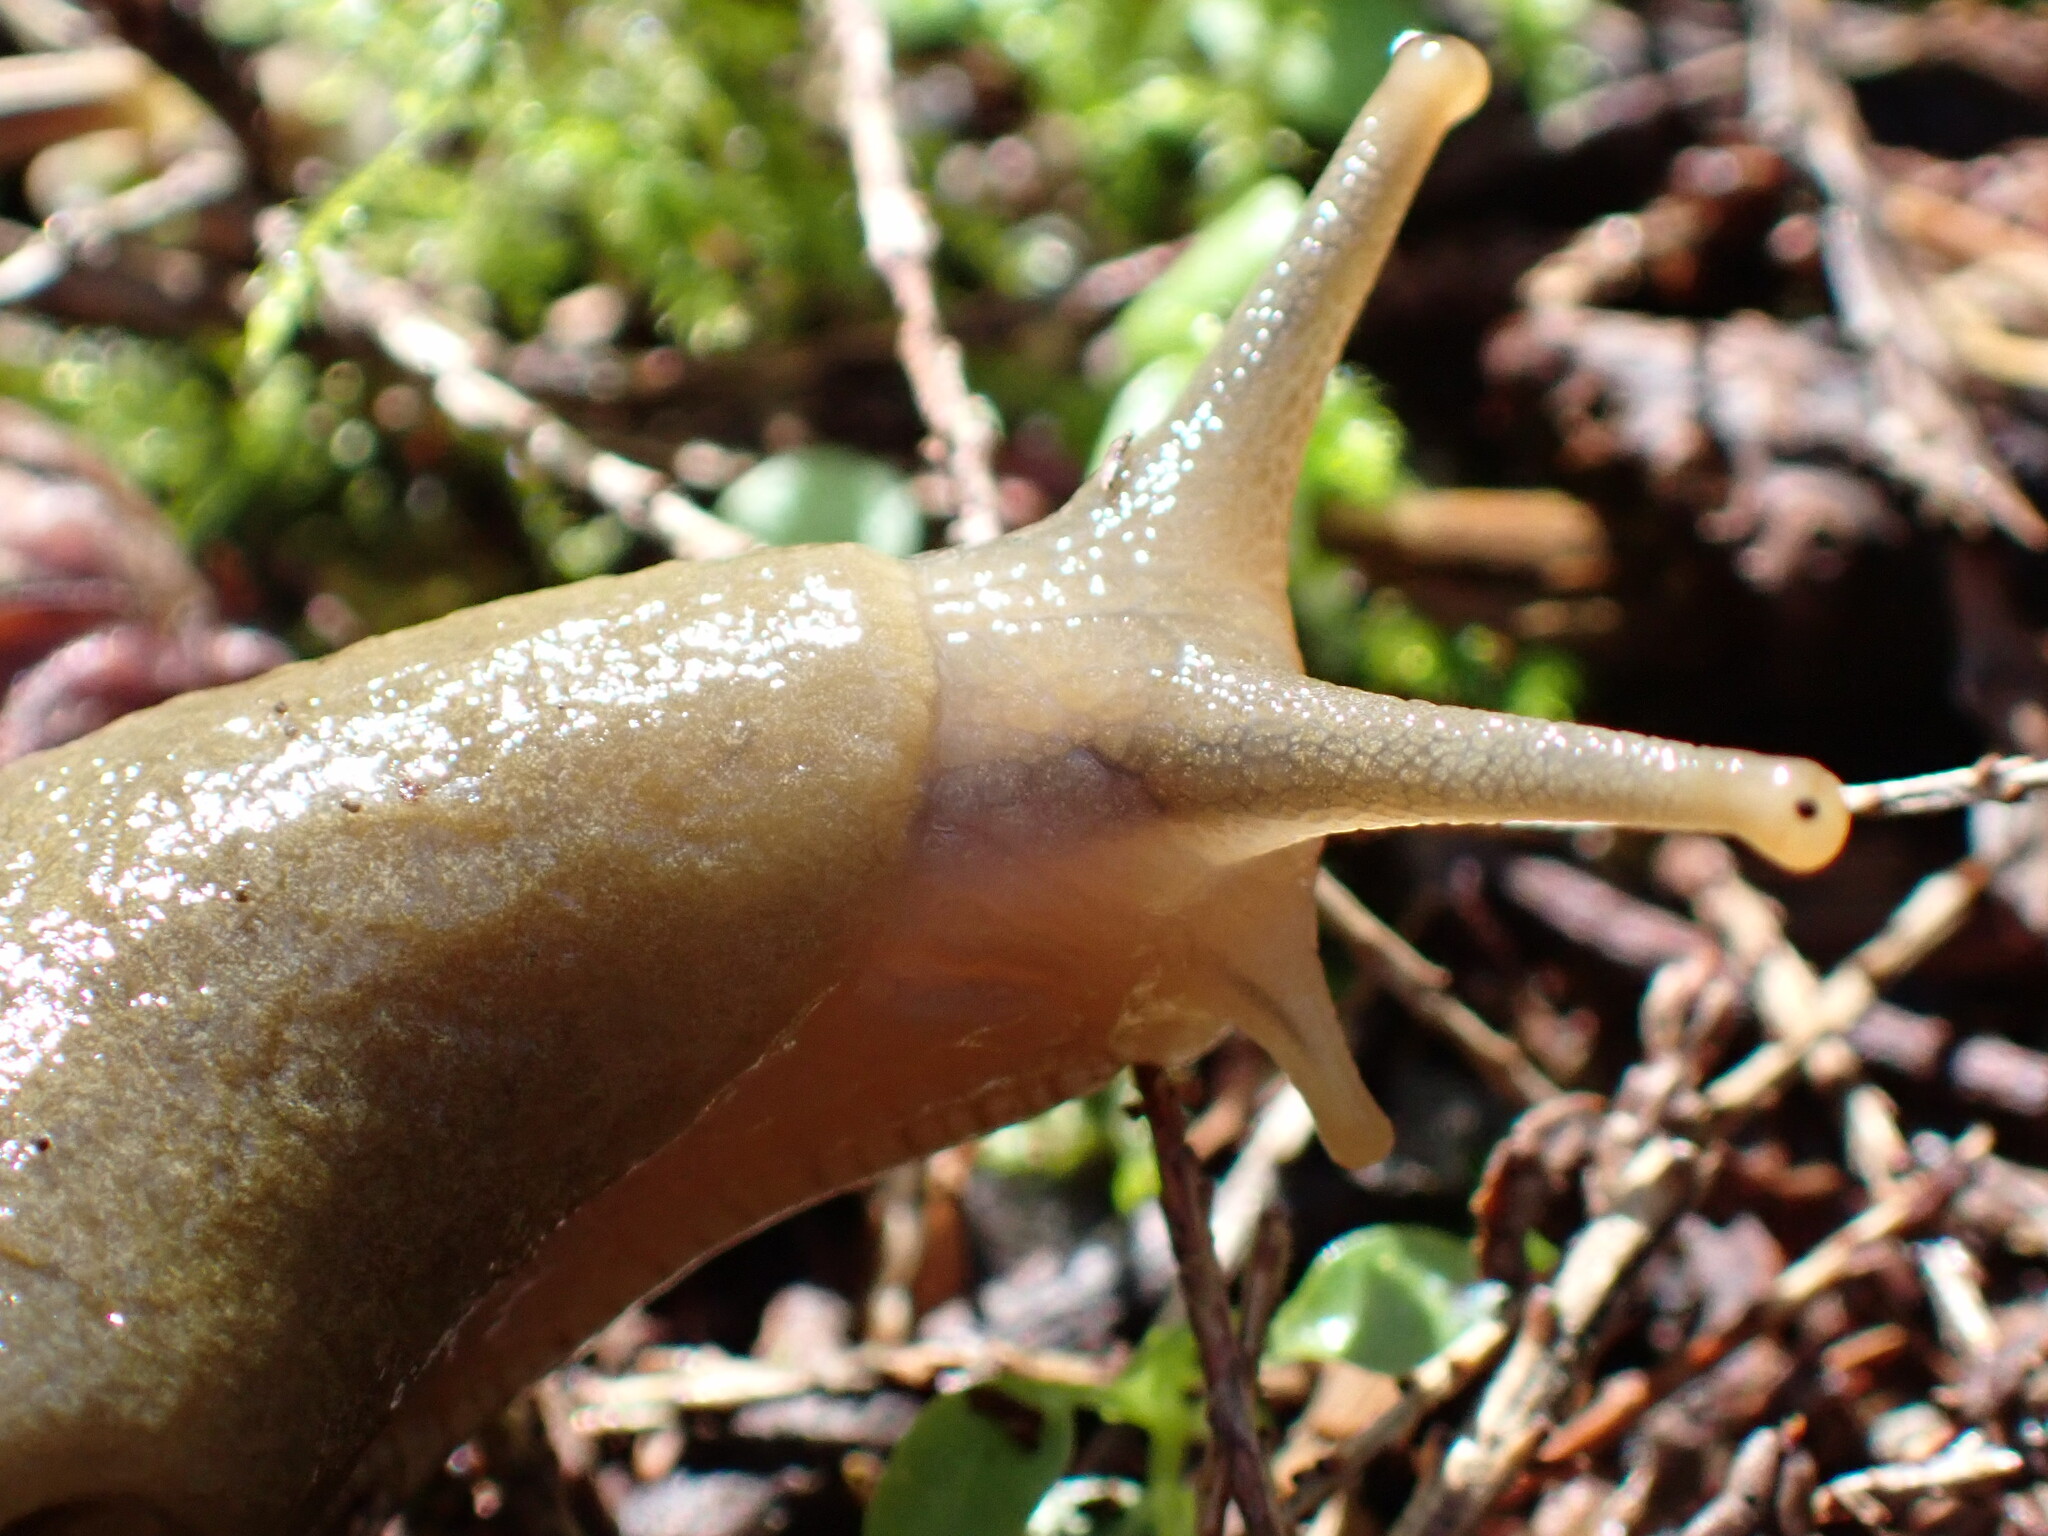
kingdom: Animalia
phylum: Mollusca
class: Gastropoda
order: Stylommatophora
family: Ariolimacidae
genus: Ariolimax
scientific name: Ariolimax columbianus
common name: Pacific banana slug
